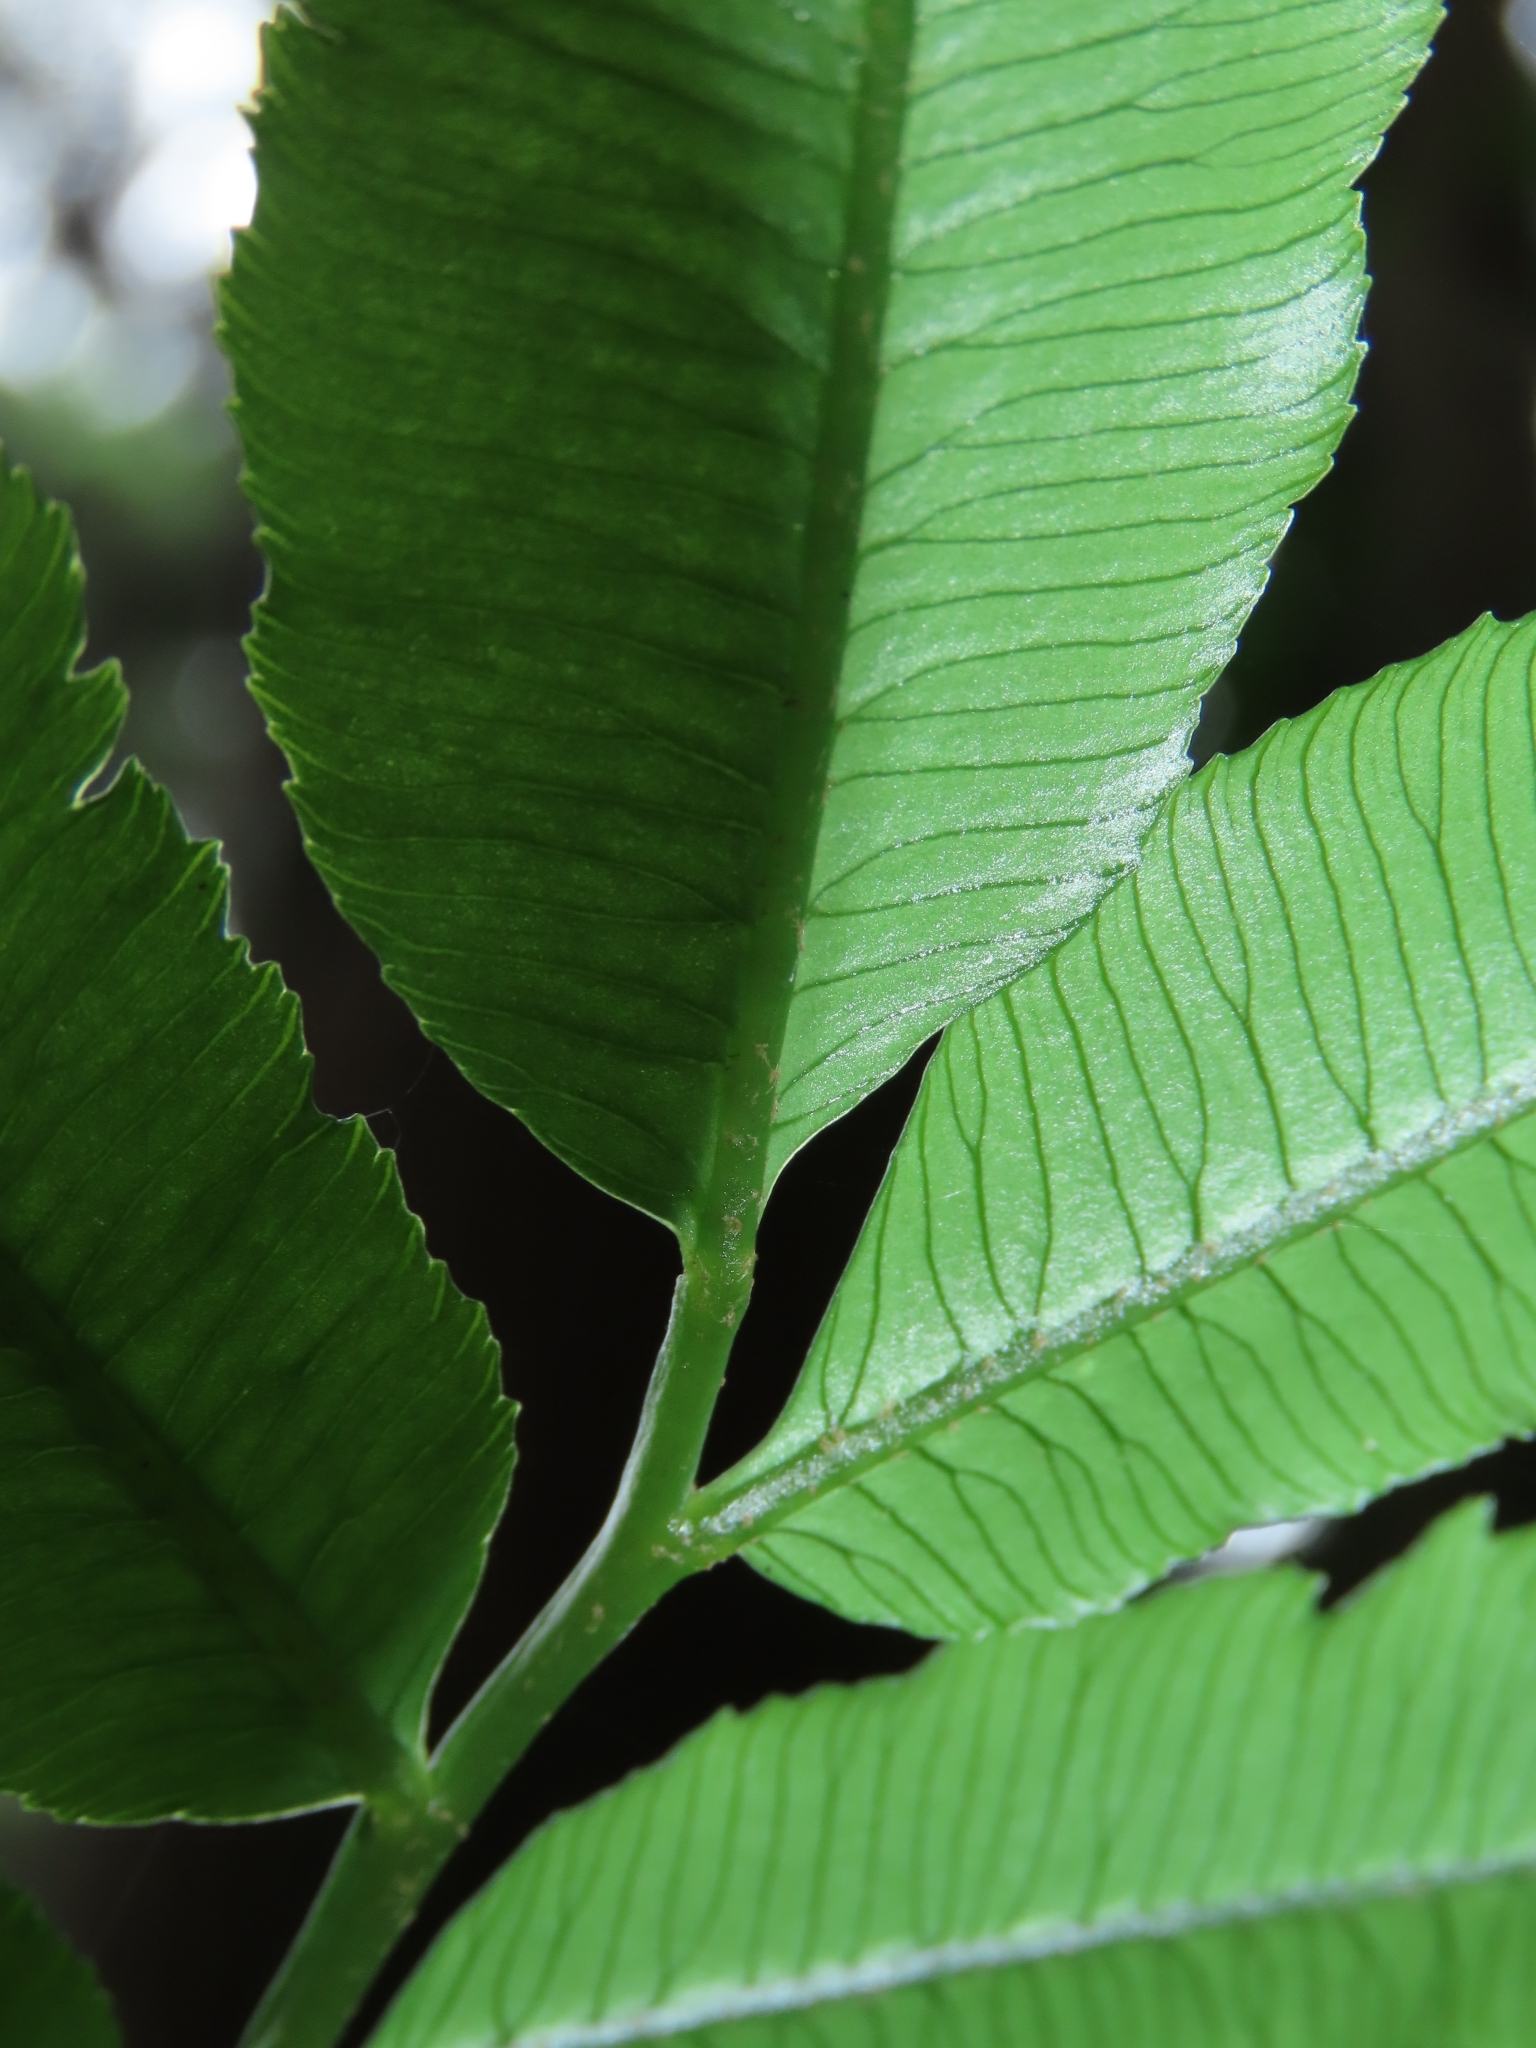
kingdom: Plantae
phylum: Tracheophyta
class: Polypodiopsida
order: Marattiales
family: Marattiaceae
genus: Angiopteris
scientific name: Angiopteris lygodiifolia
